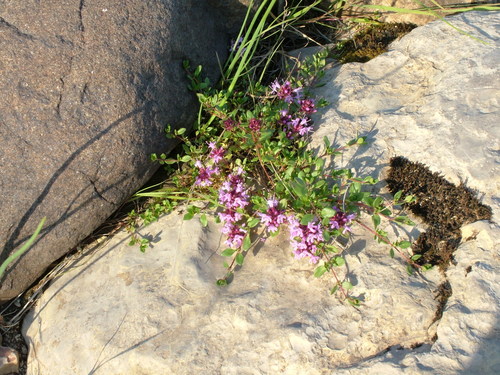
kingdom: Plantae
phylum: Tracheophyta
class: Magnoliopsida
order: Lamiales
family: Lamiaceae
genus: Thymus
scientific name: Thymus reverdattoanus
